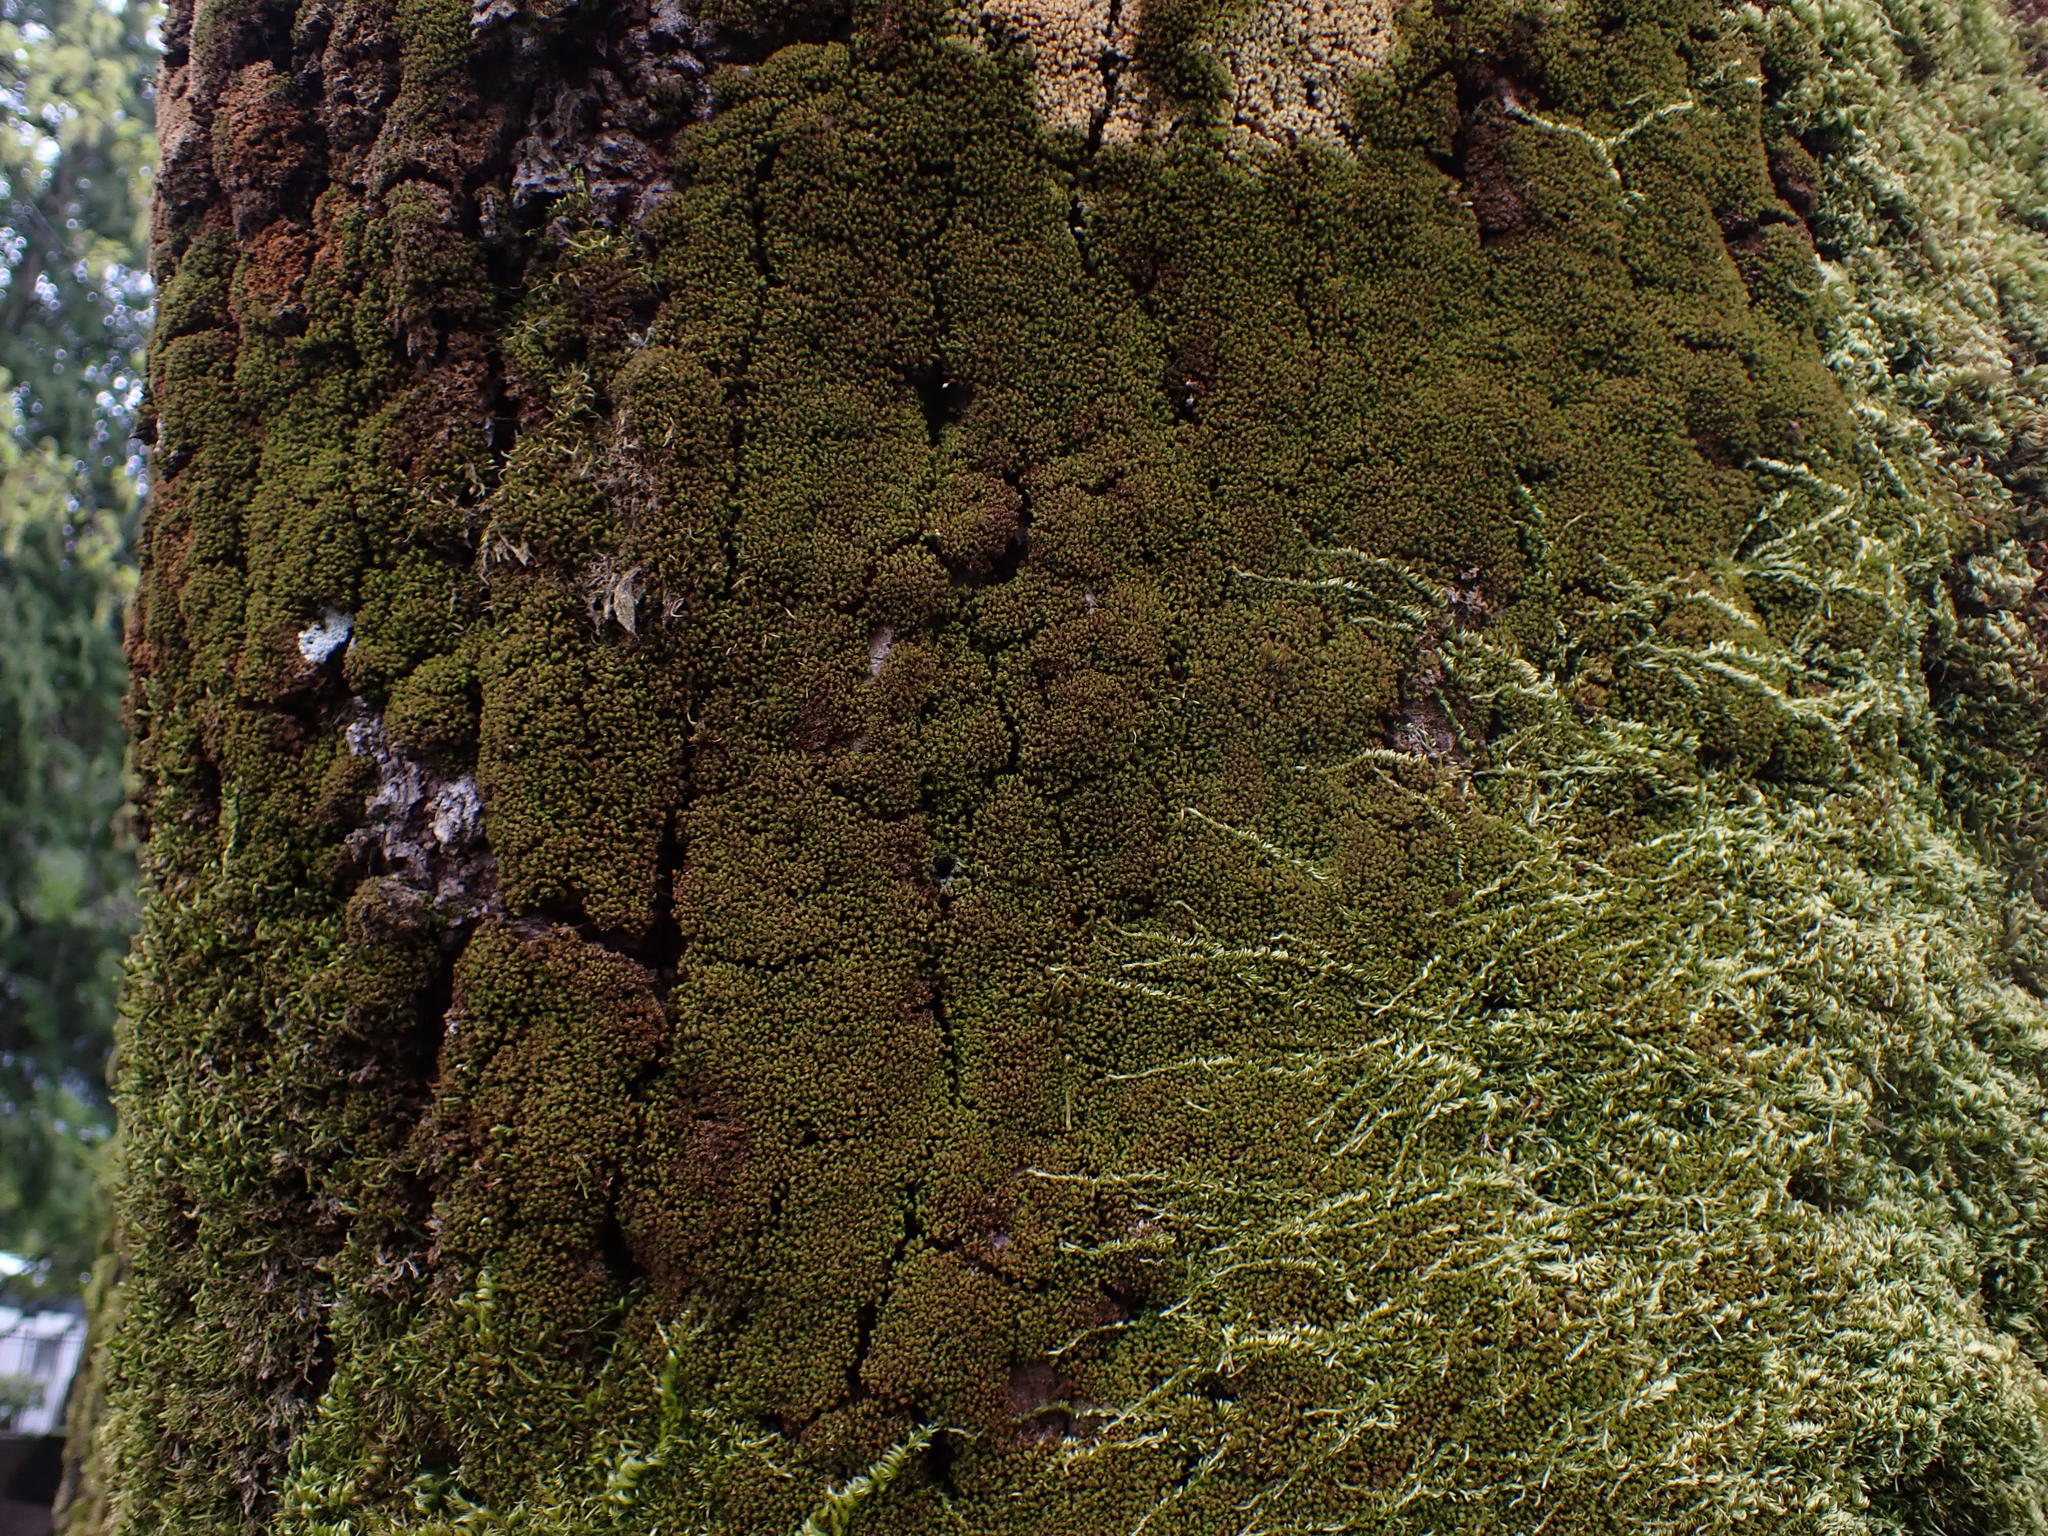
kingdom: Plantae
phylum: Bryophyta
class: Bryopsida
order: Orthotrichales
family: Orthotrichaceae
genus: Zygodon
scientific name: Zygodon rupestris
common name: Park yoke moss
